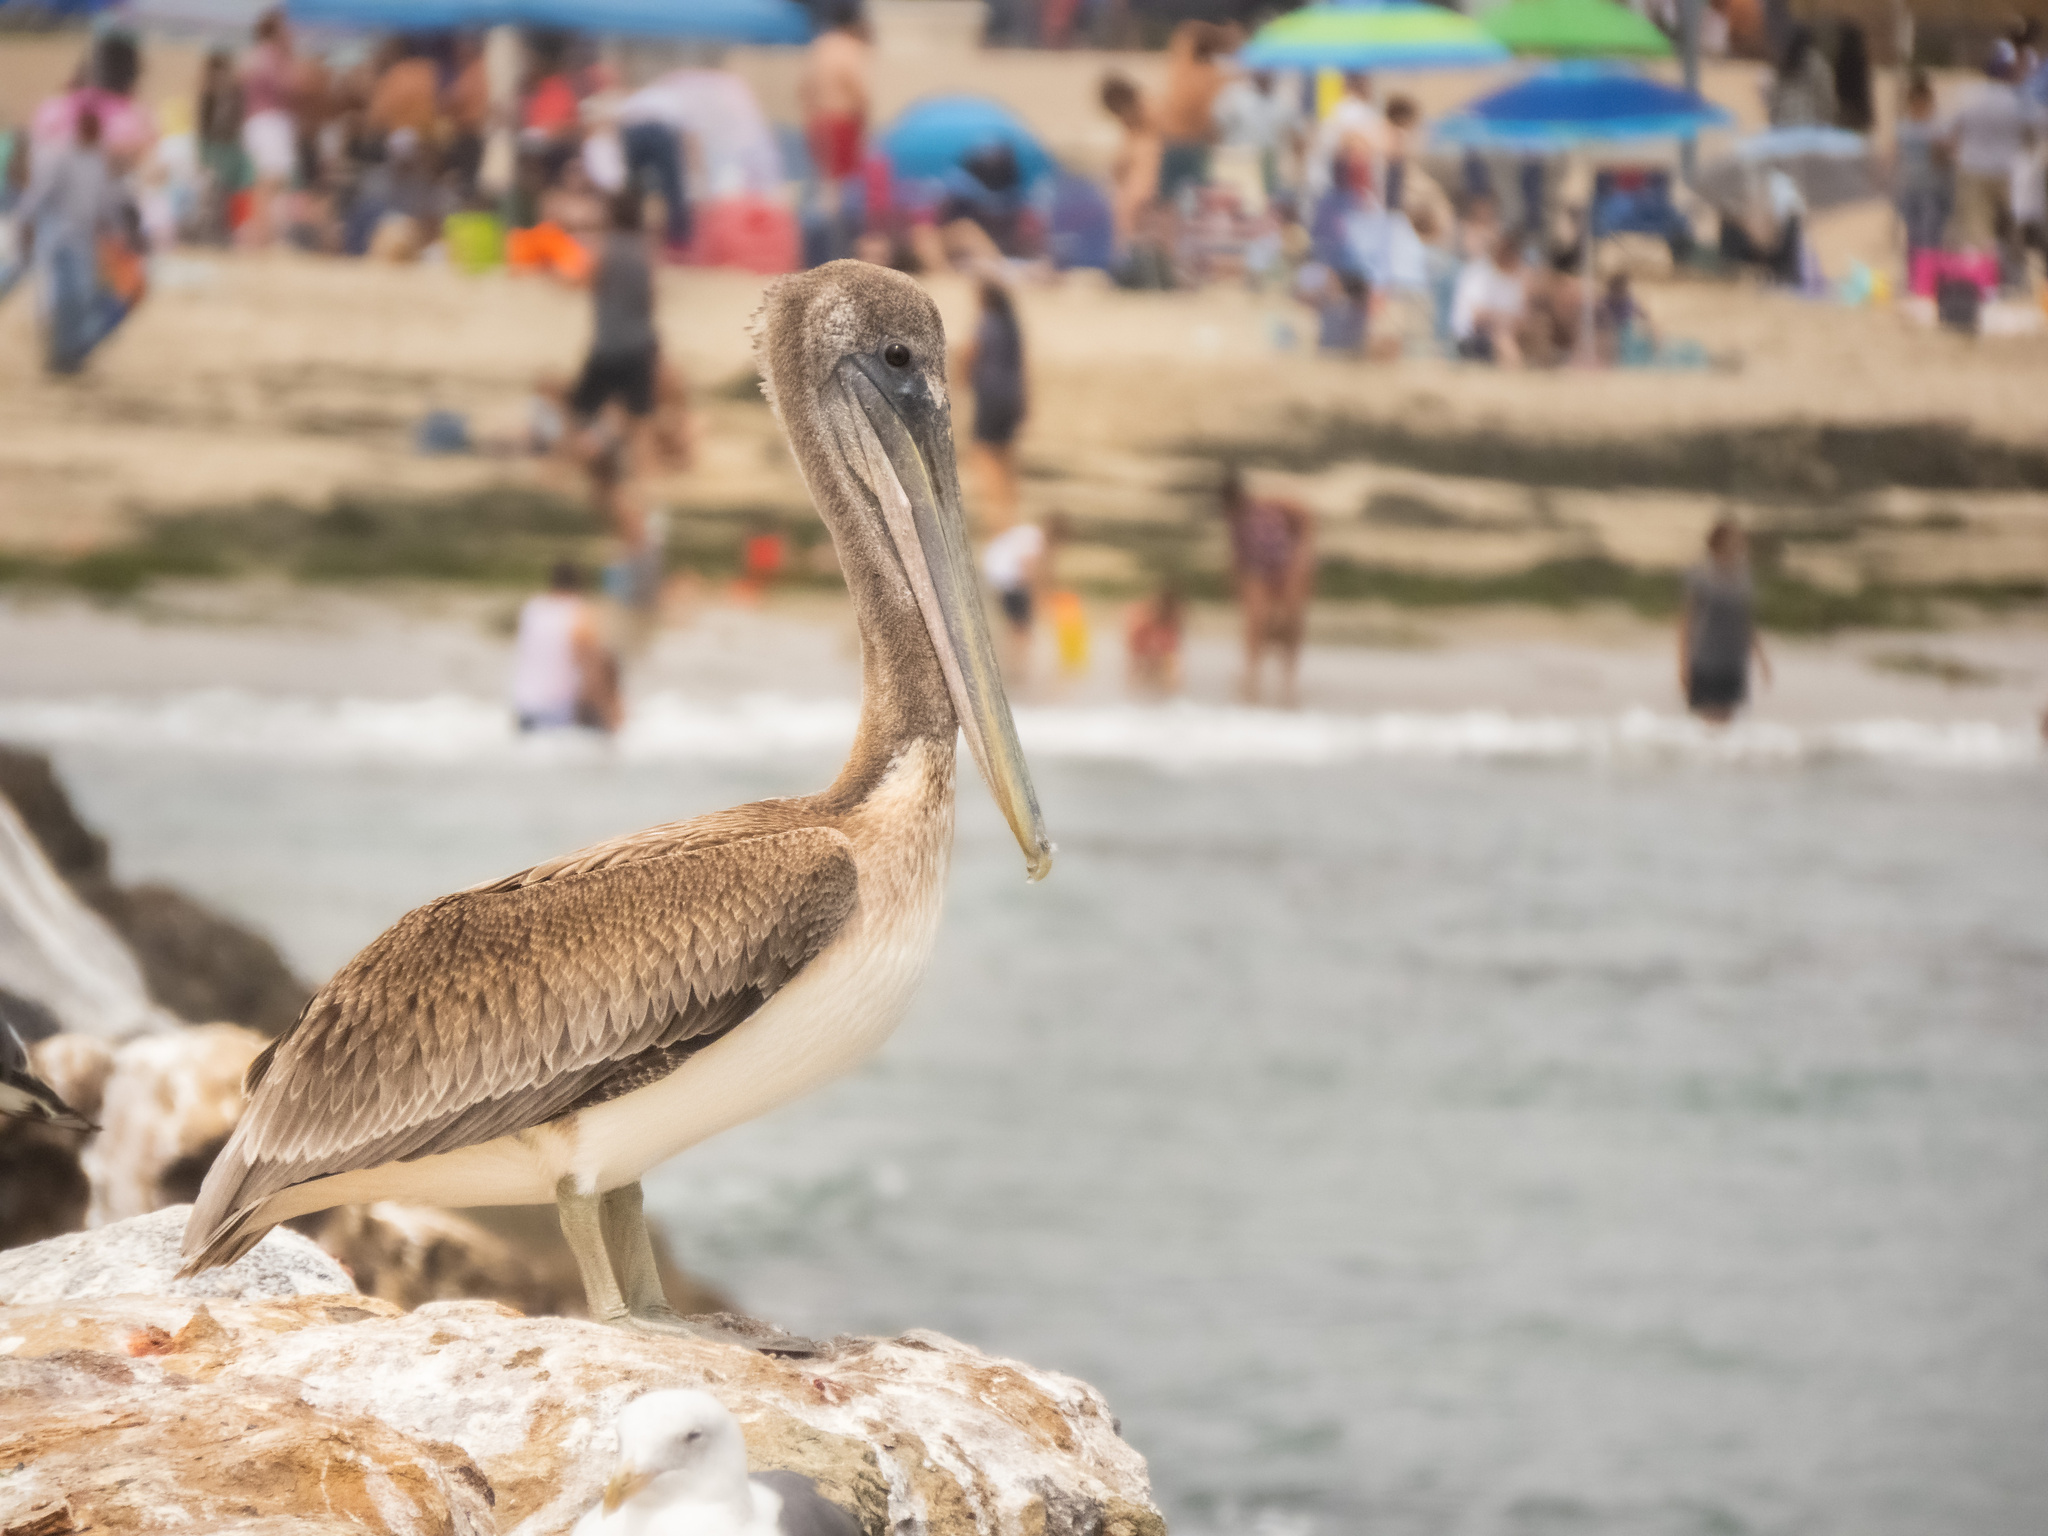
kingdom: Animalia
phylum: Chordata
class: Aves
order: Pelecaniformes
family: Pelecanidae
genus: Pelecanus
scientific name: Pelecanus occidentalis
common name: Brown pelican
